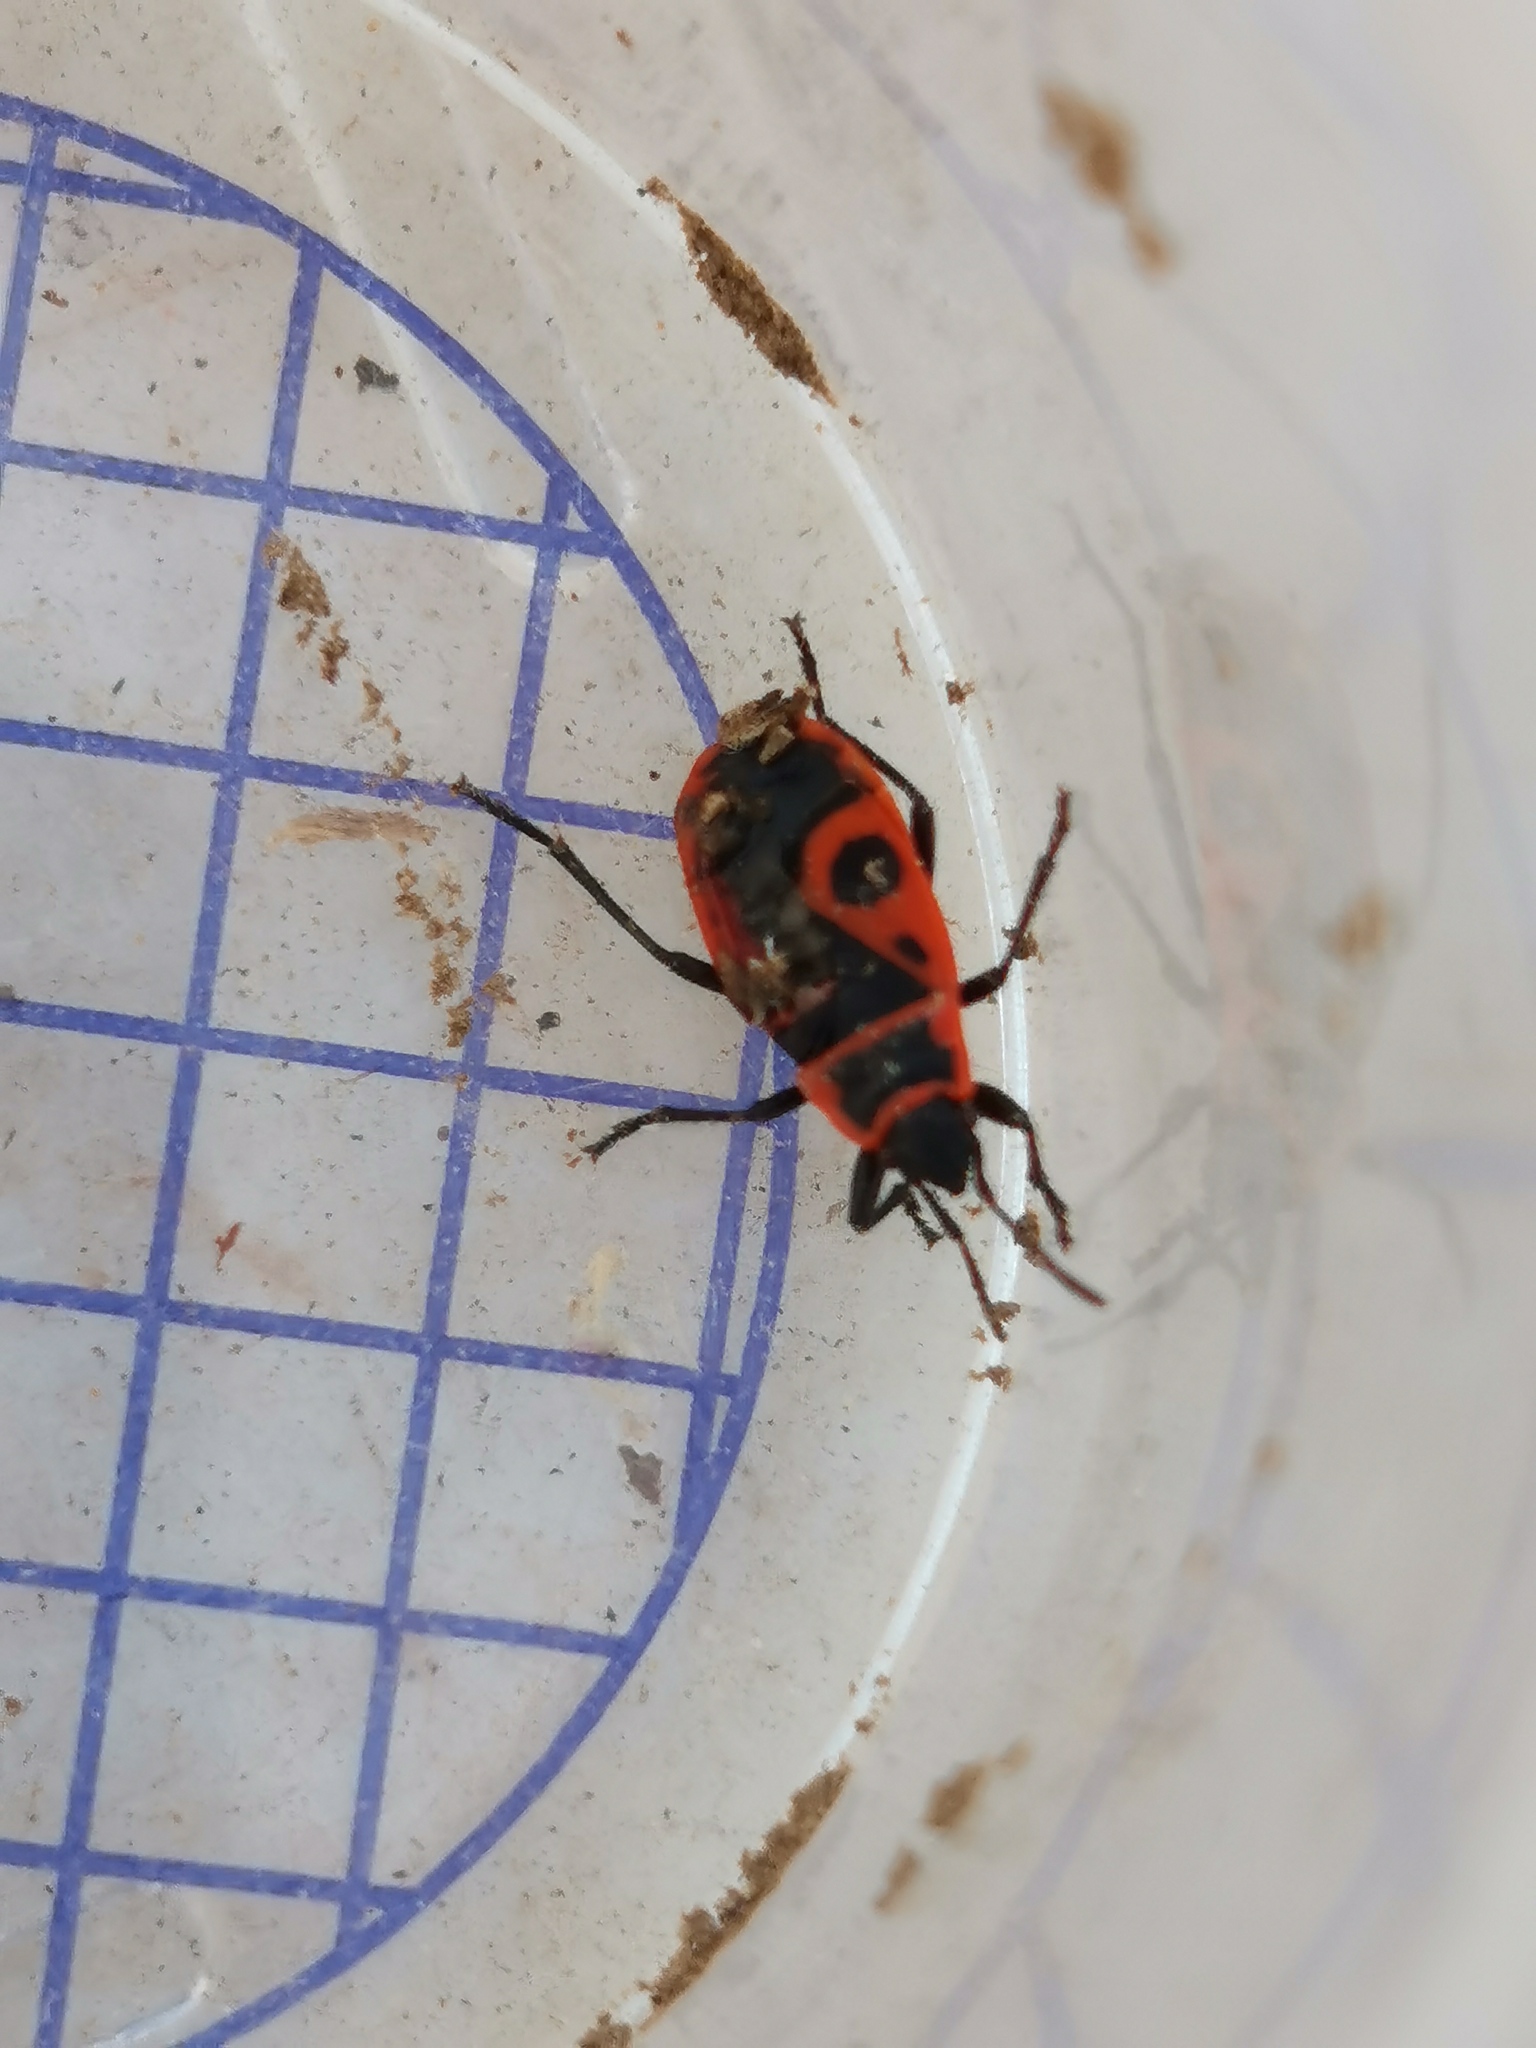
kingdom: Animalia
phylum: Arthropoda
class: Insecta
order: Hemiptera
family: Pyrrhocoridae
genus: Pyrrhocoris
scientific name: Pyrrhocoris apterus
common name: Firebug
